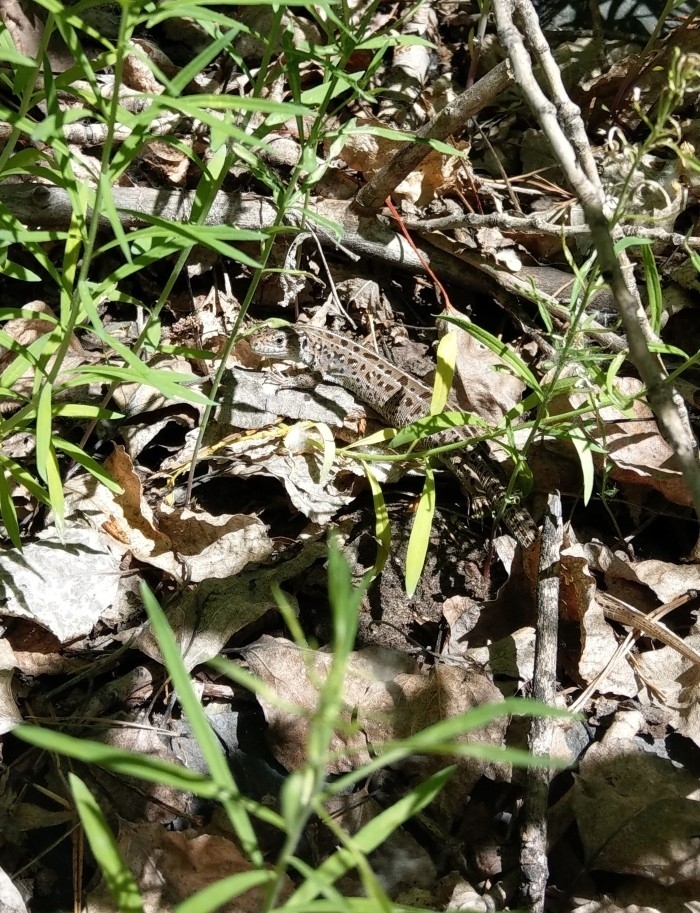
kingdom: Animalia
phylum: Chordata
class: Squamata
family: Lacertidae
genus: Lacerta
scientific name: Lacerta agilis
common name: Sand lizard
